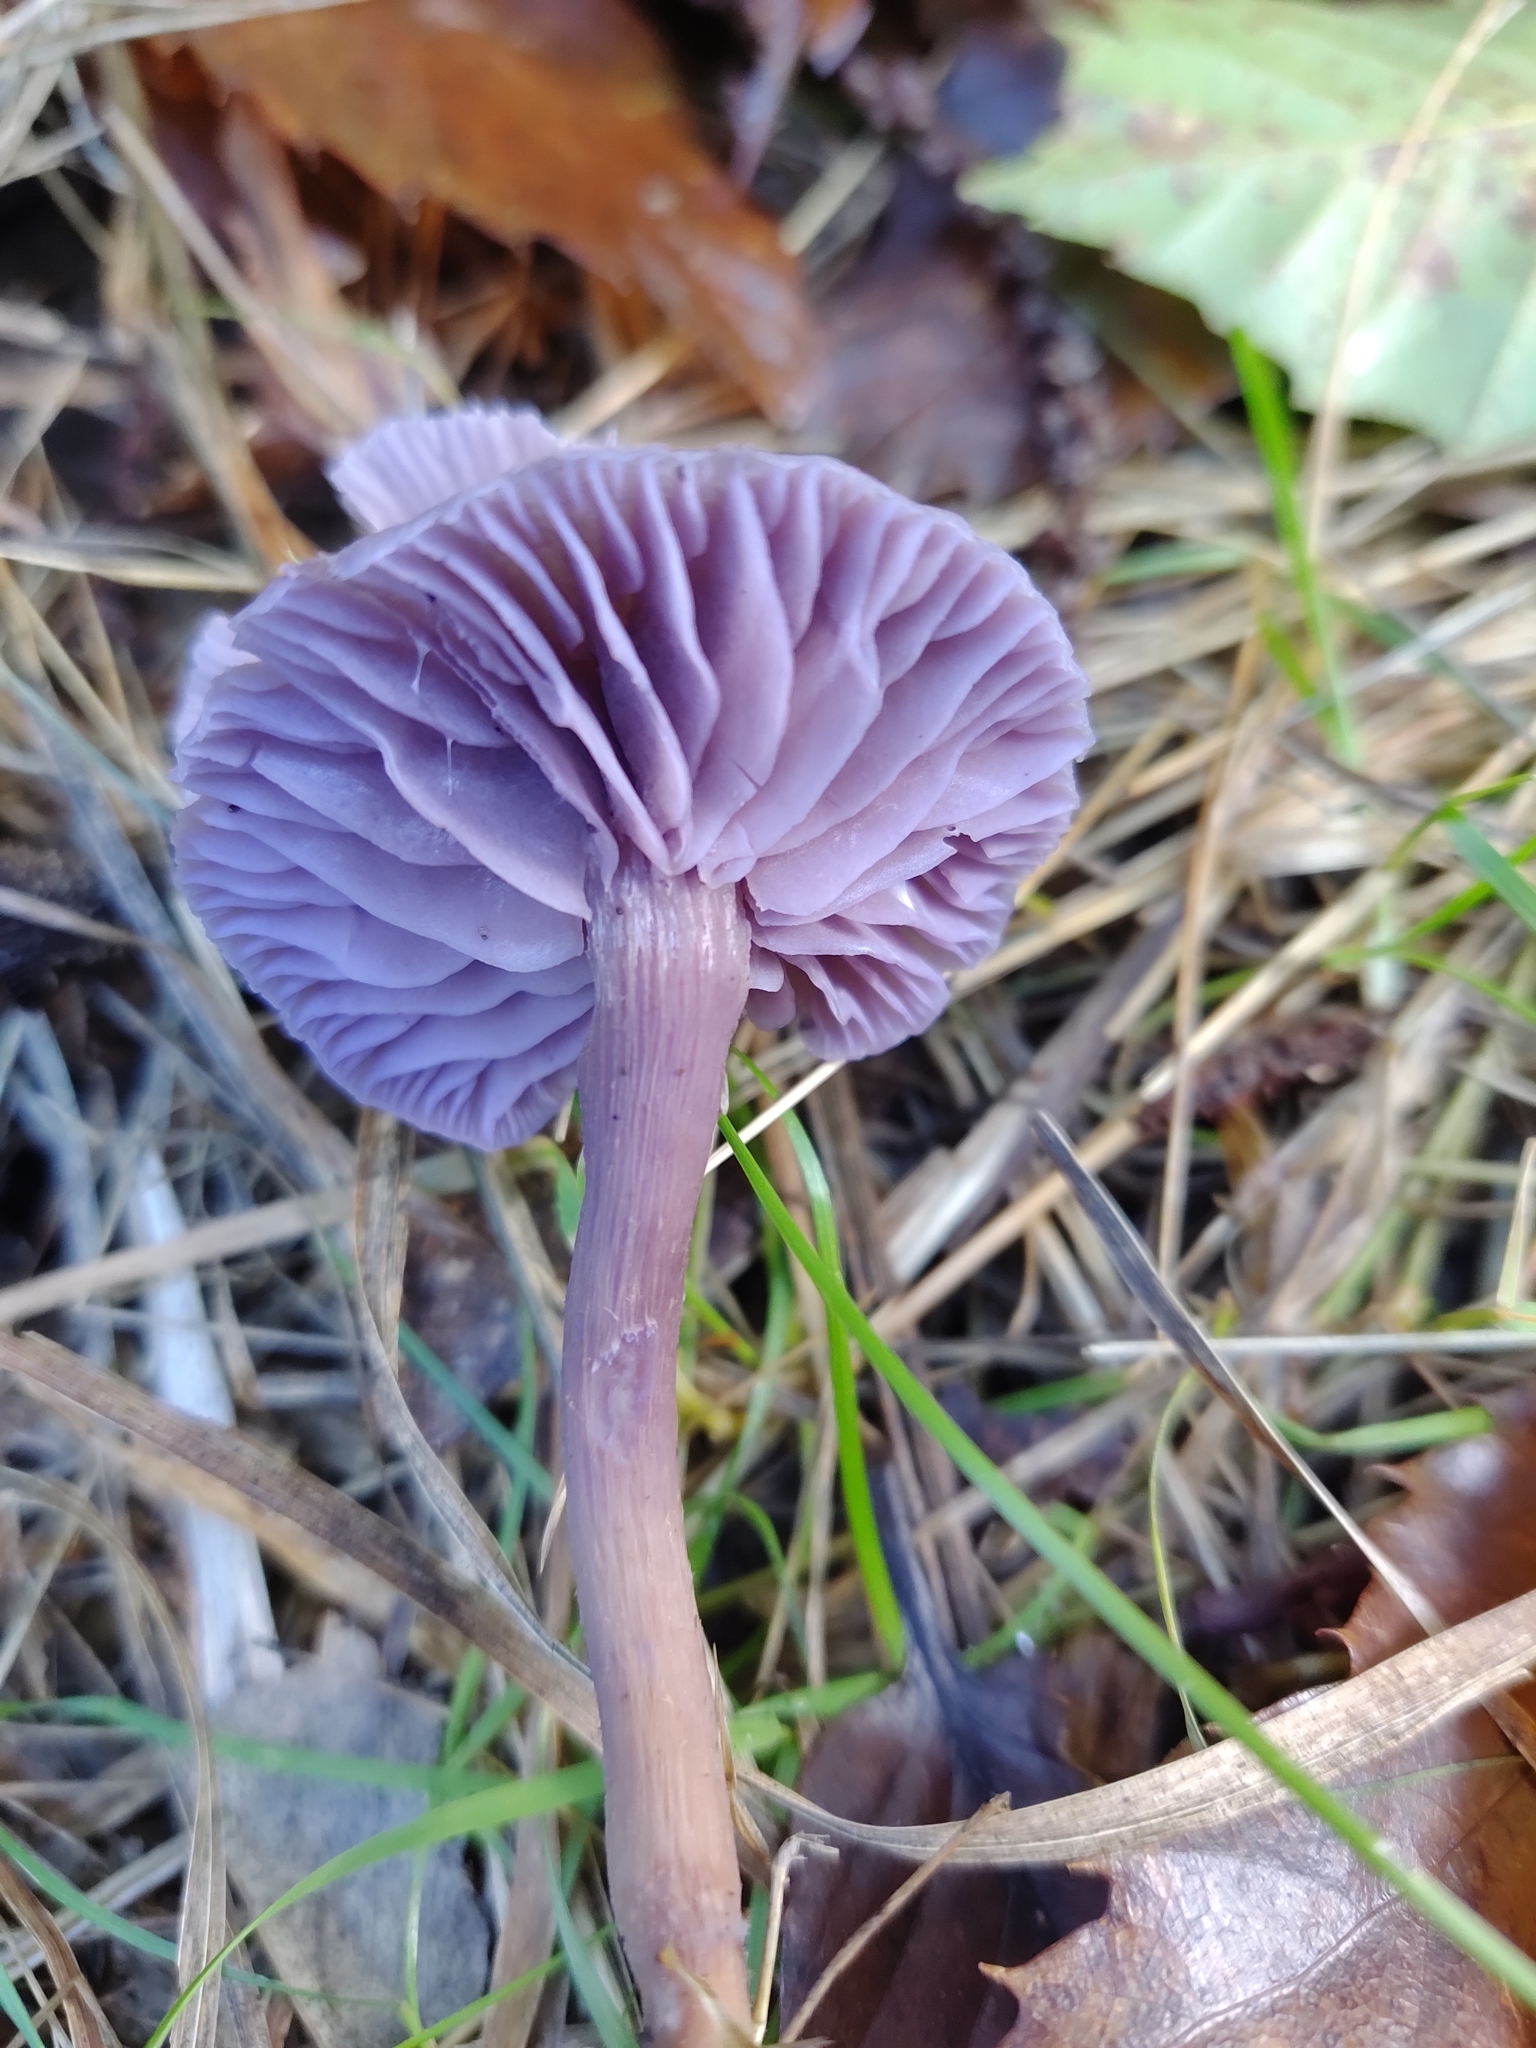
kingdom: Fungi
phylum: Basidiomycota
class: Agaricomycetes
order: Agaricales
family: Hydnangiaceae
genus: Laccaria
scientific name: Laccaria amethystina
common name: Amethyst deceiver
